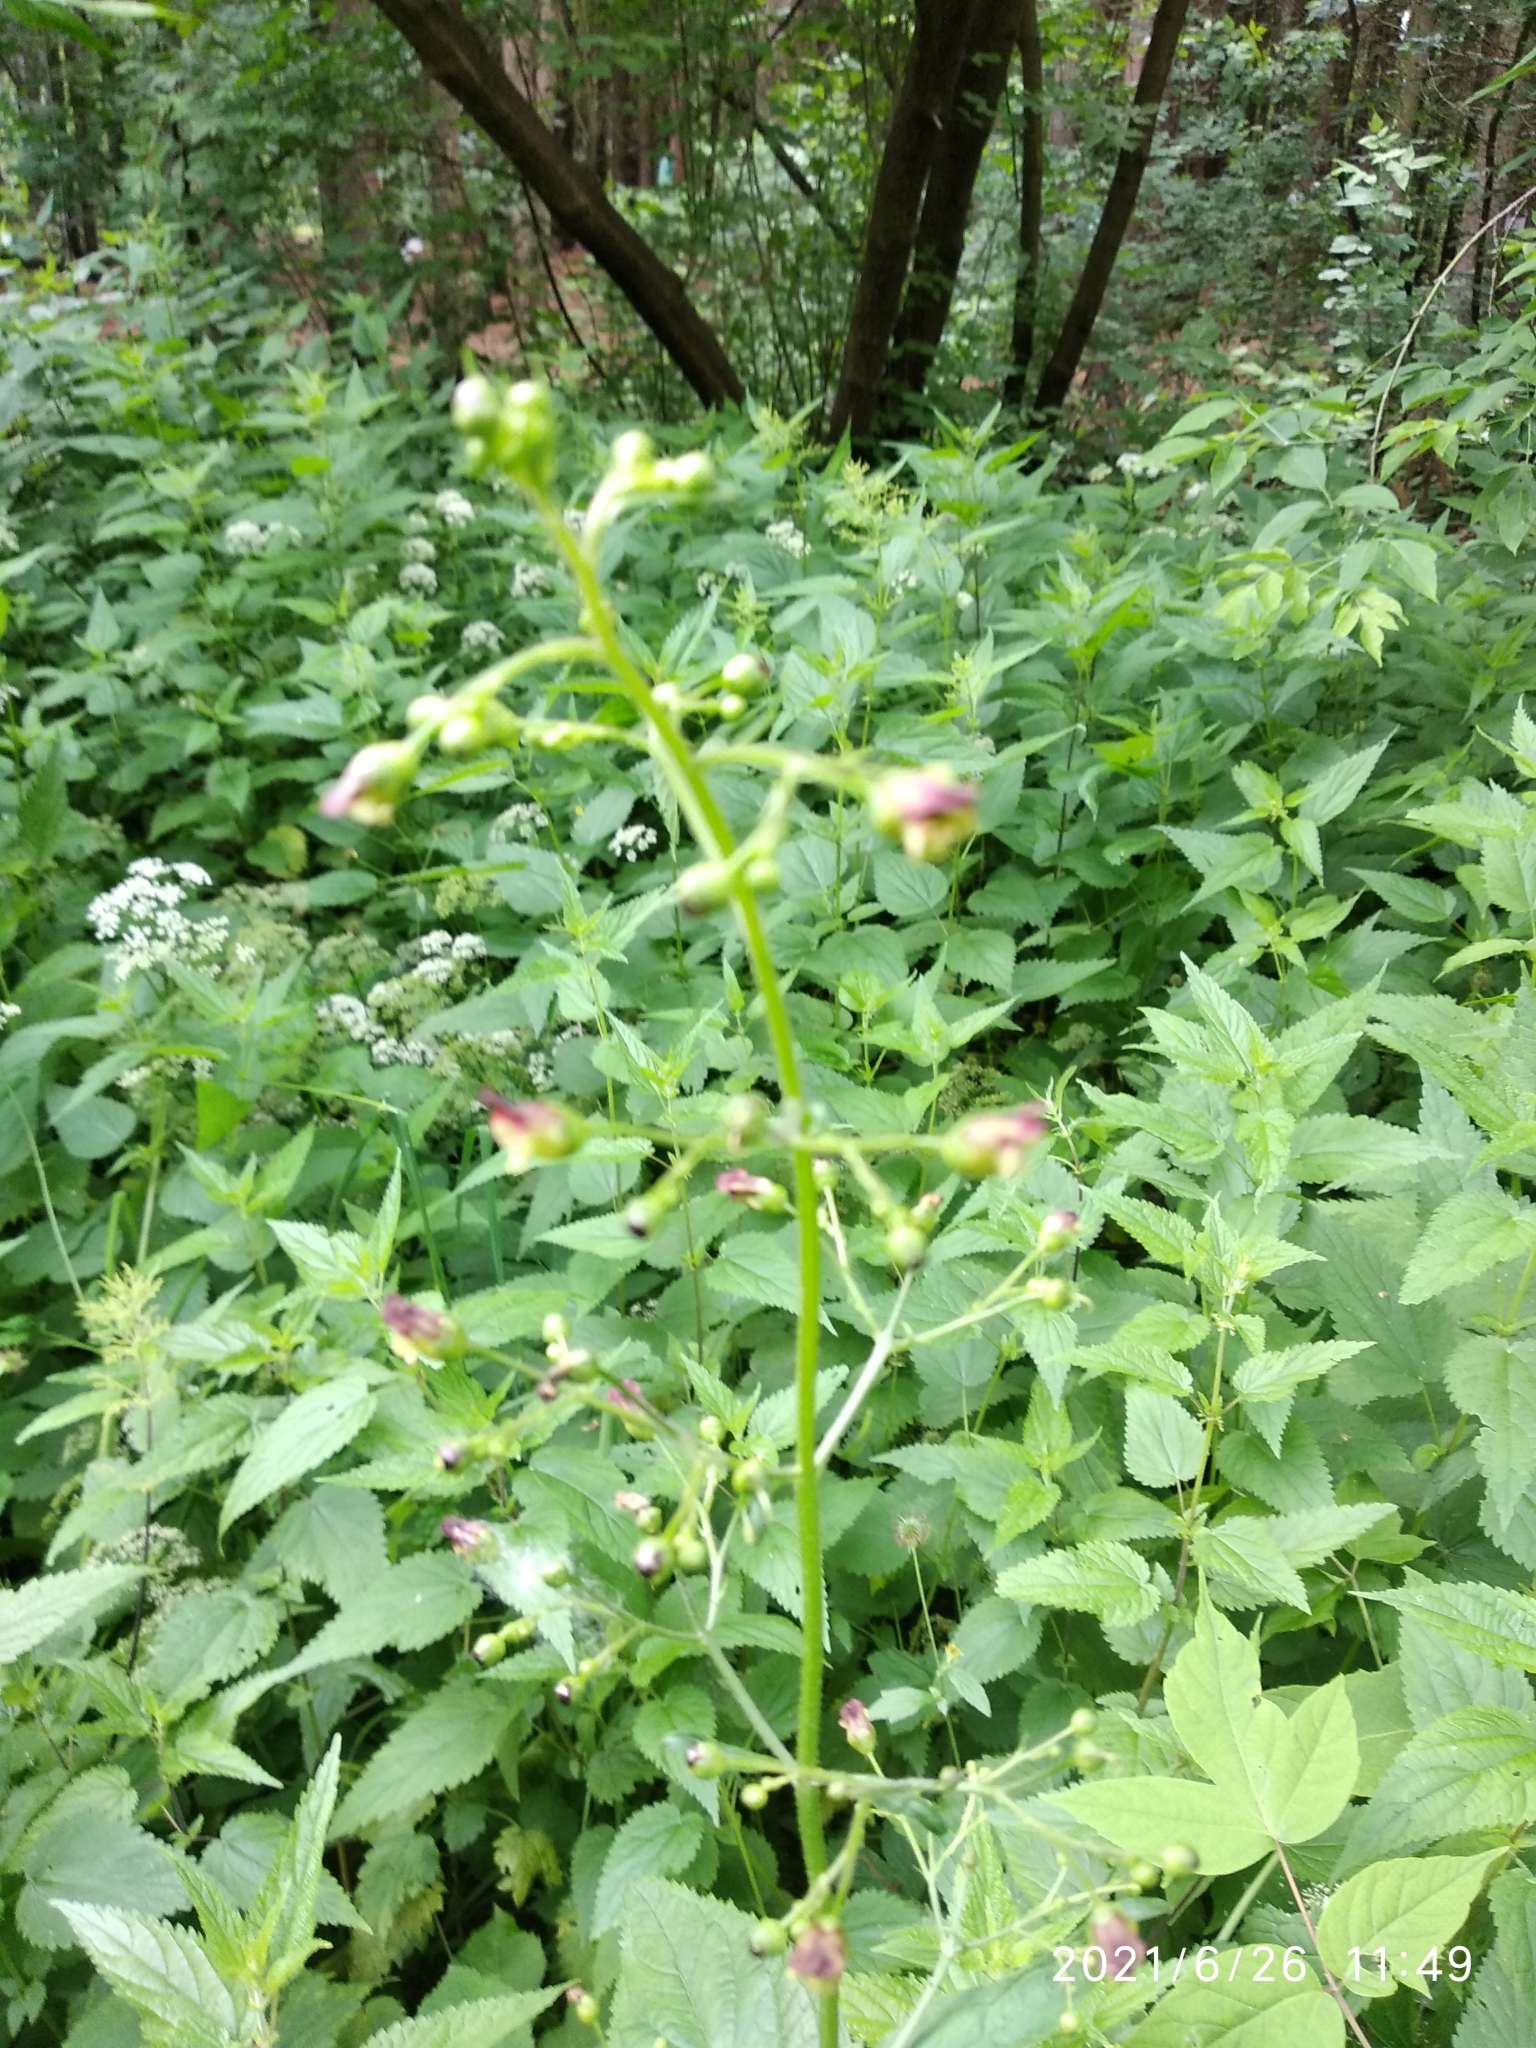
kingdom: Plantae
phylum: Tracheophyta
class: Magnoliopsida
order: Lamiales
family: Scrophulariaceae
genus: Scrophularia
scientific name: Scrophularia nodosa
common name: Common figwort
